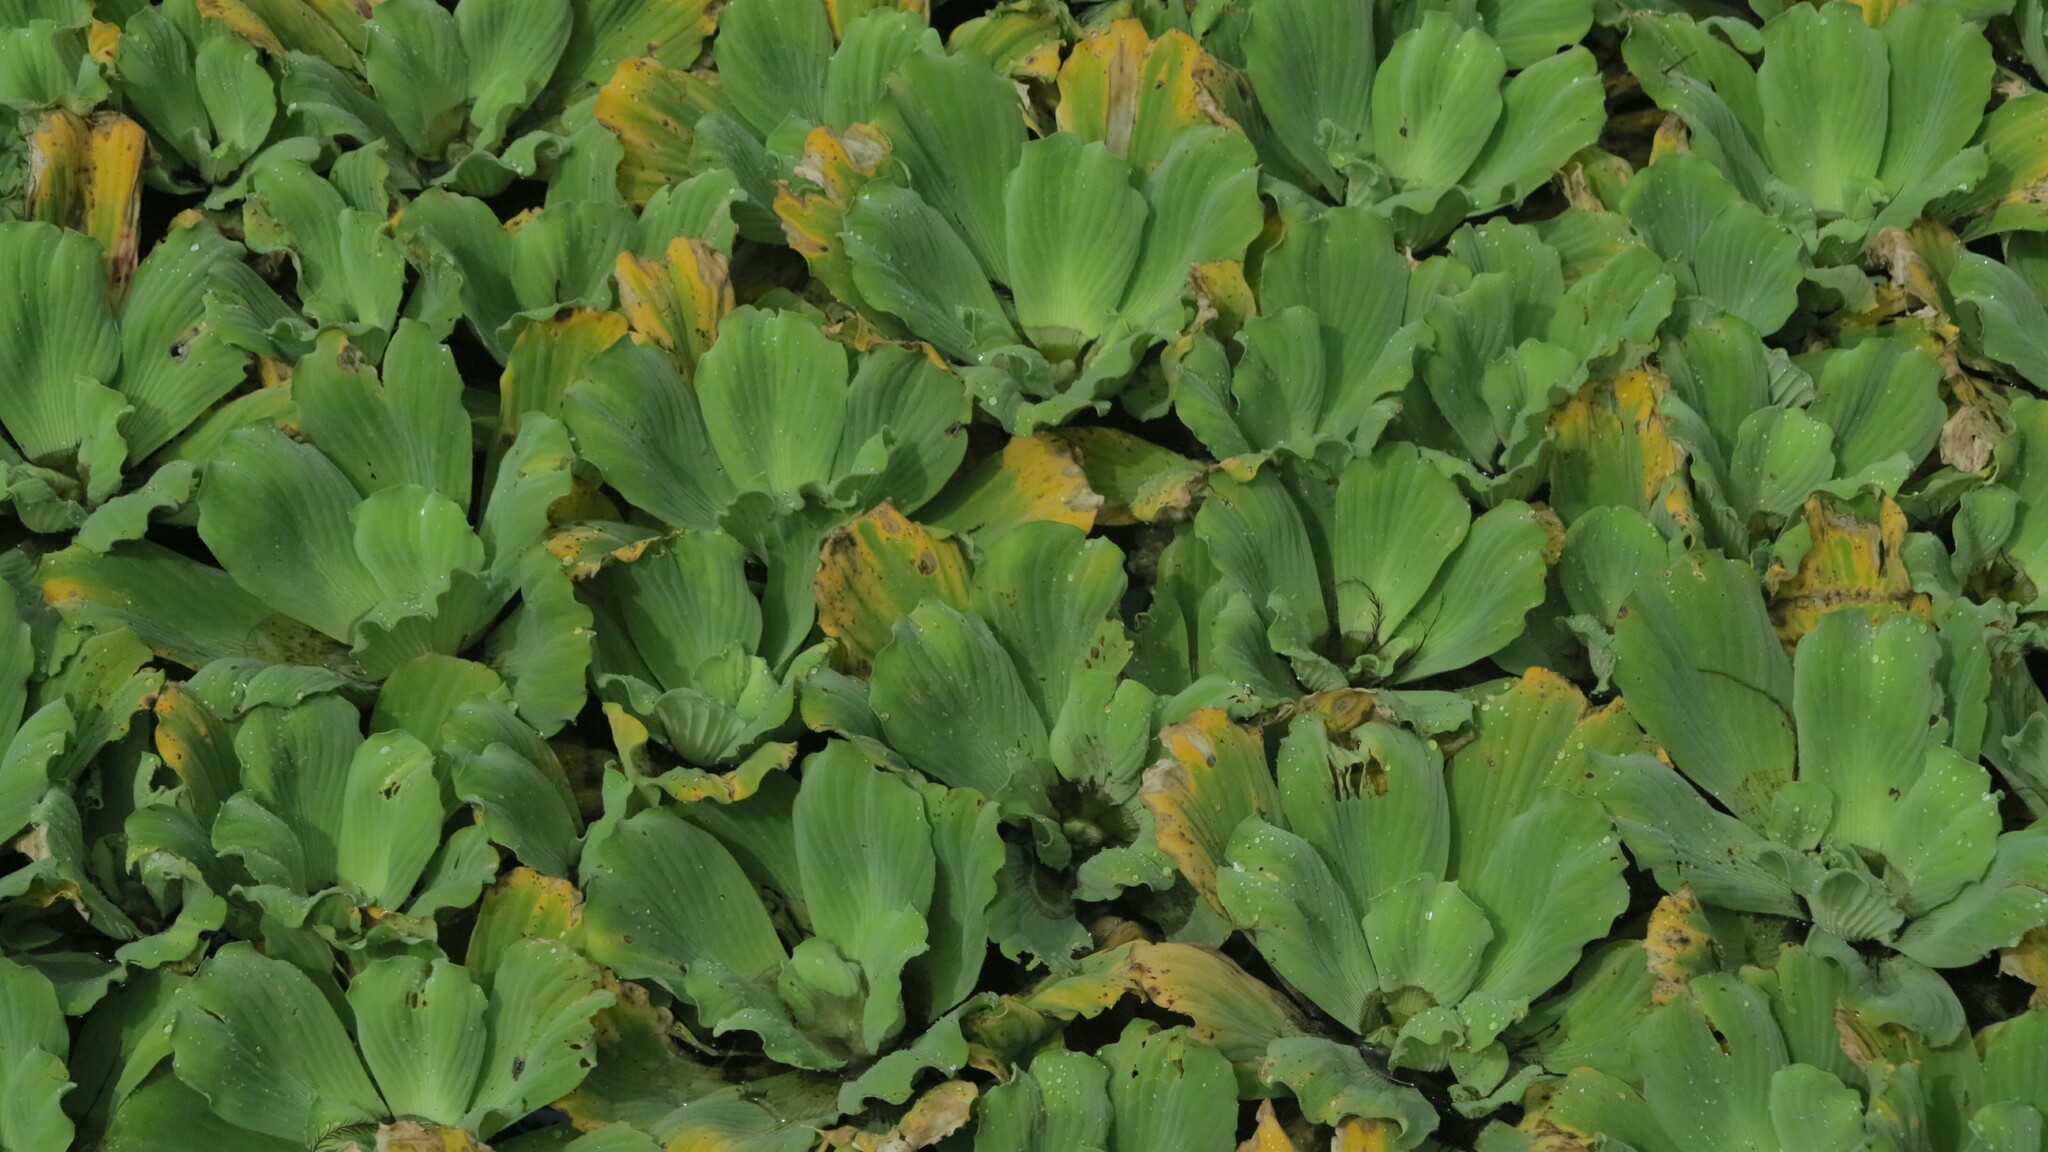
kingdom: Plantae
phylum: Tracheophyta
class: Liliopsida
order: Alismatales
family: Araceae
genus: Pistia
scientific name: Pistia stratiotes
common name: Water lettuce
